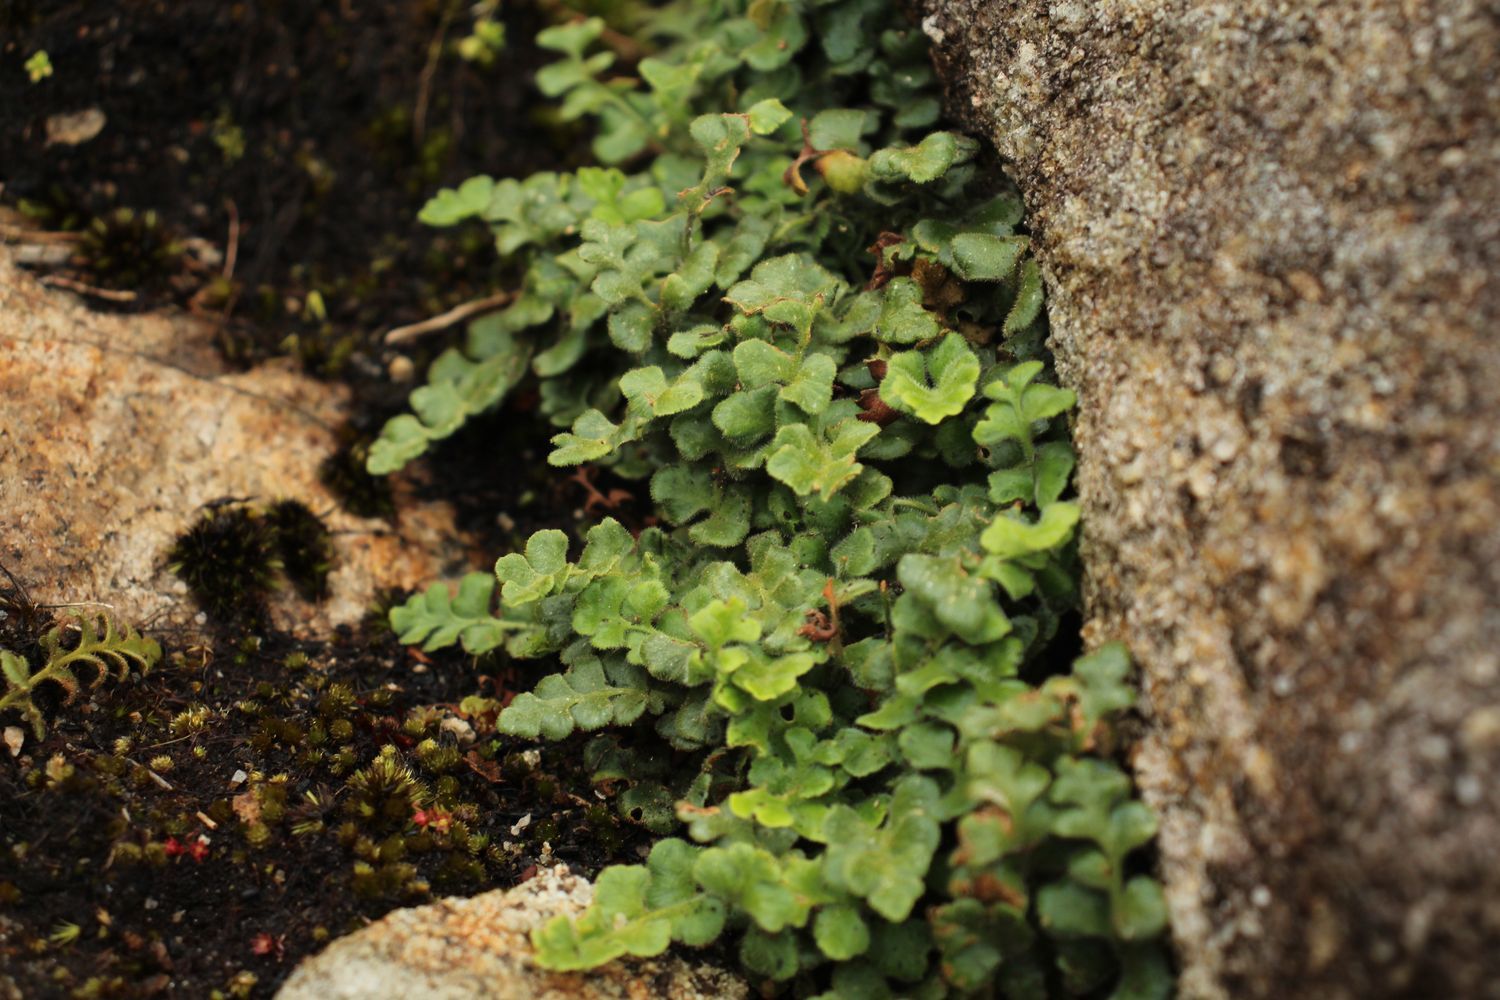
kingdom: Plantae
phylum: Tracheophyta
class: Polypodiopsida
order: Polypodiales
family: Aspleniaceae
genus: Asplenium
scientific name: Asplenium subglandulosum
